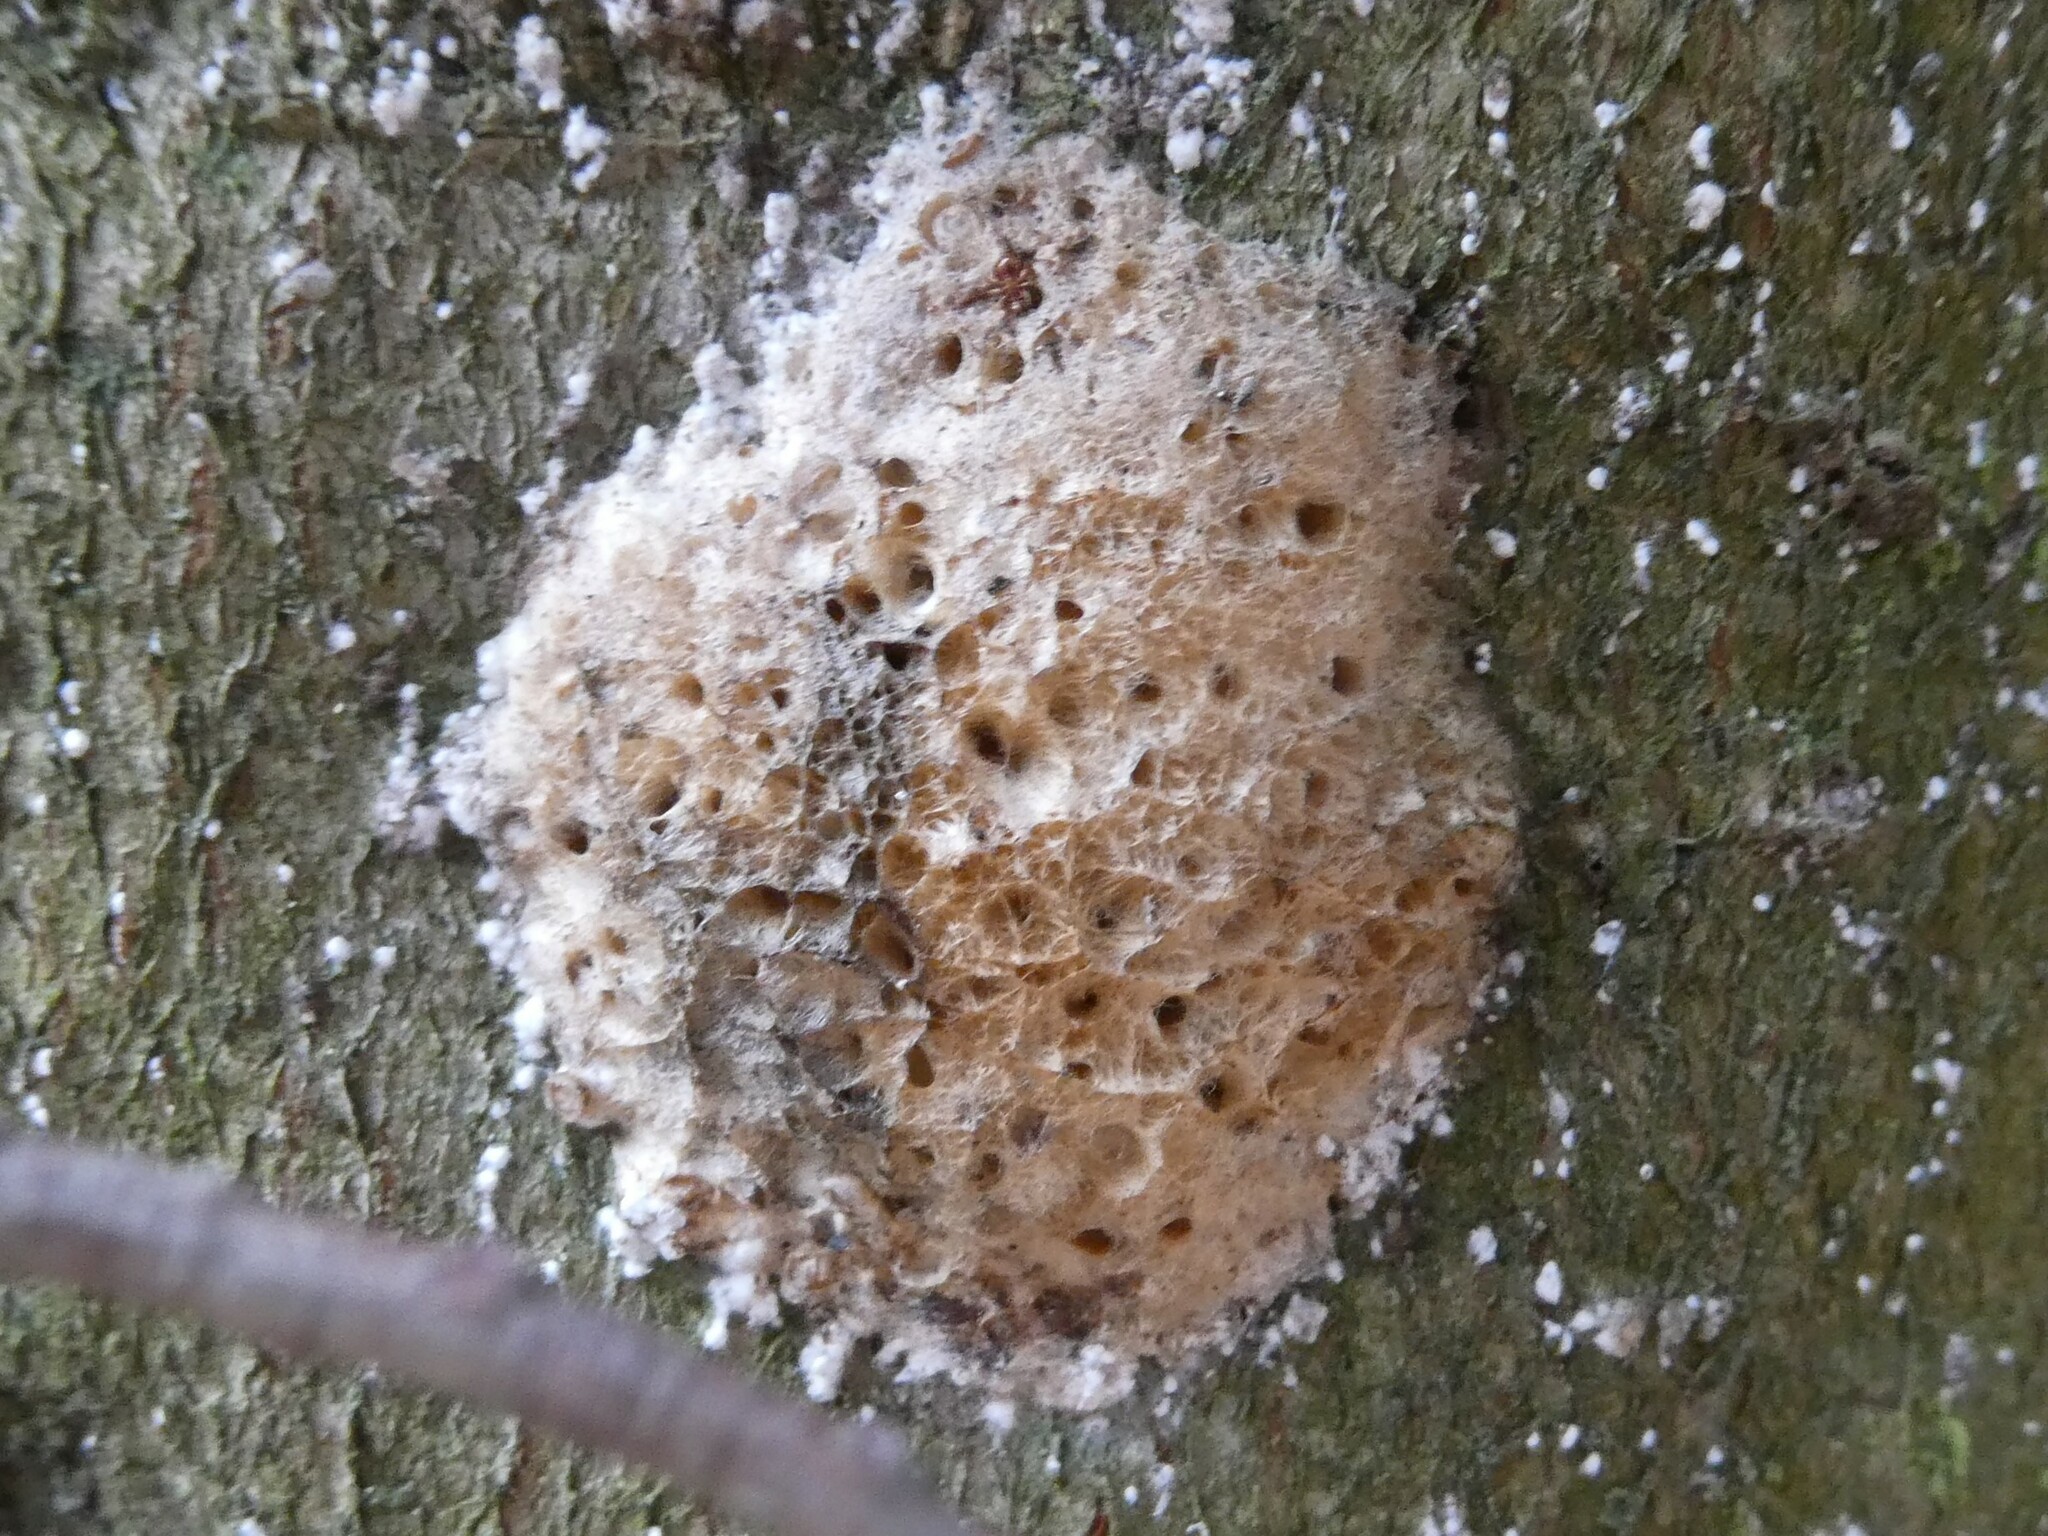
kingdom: Animalia
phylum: Arthropoda
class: Insecta
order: Lepidoptera
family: Erebidae
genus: Lymantria
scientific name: Lymantria dispar
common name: Gypsy moth
